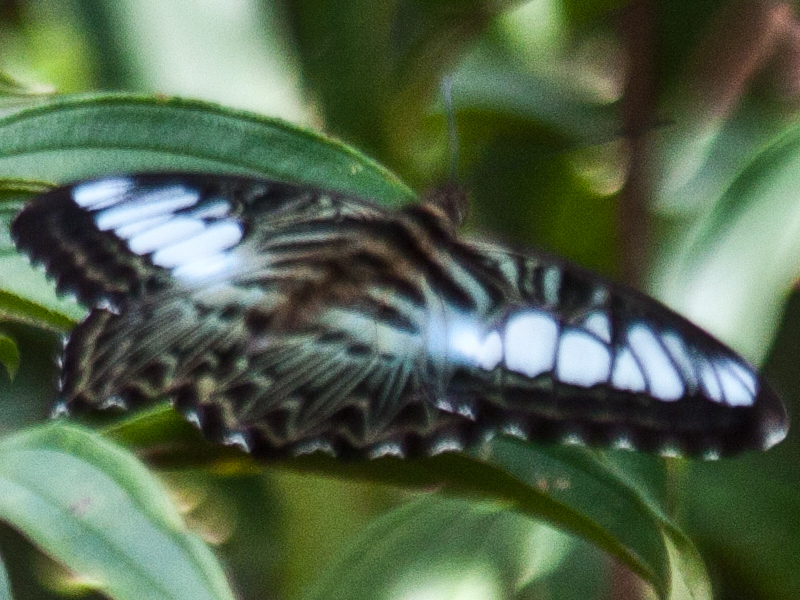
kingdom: Animalia
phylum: Arthropoda
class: Insecta
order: Lepidoptera
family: Nymphalidae
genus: Kallima
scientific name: Kallima sylvia
